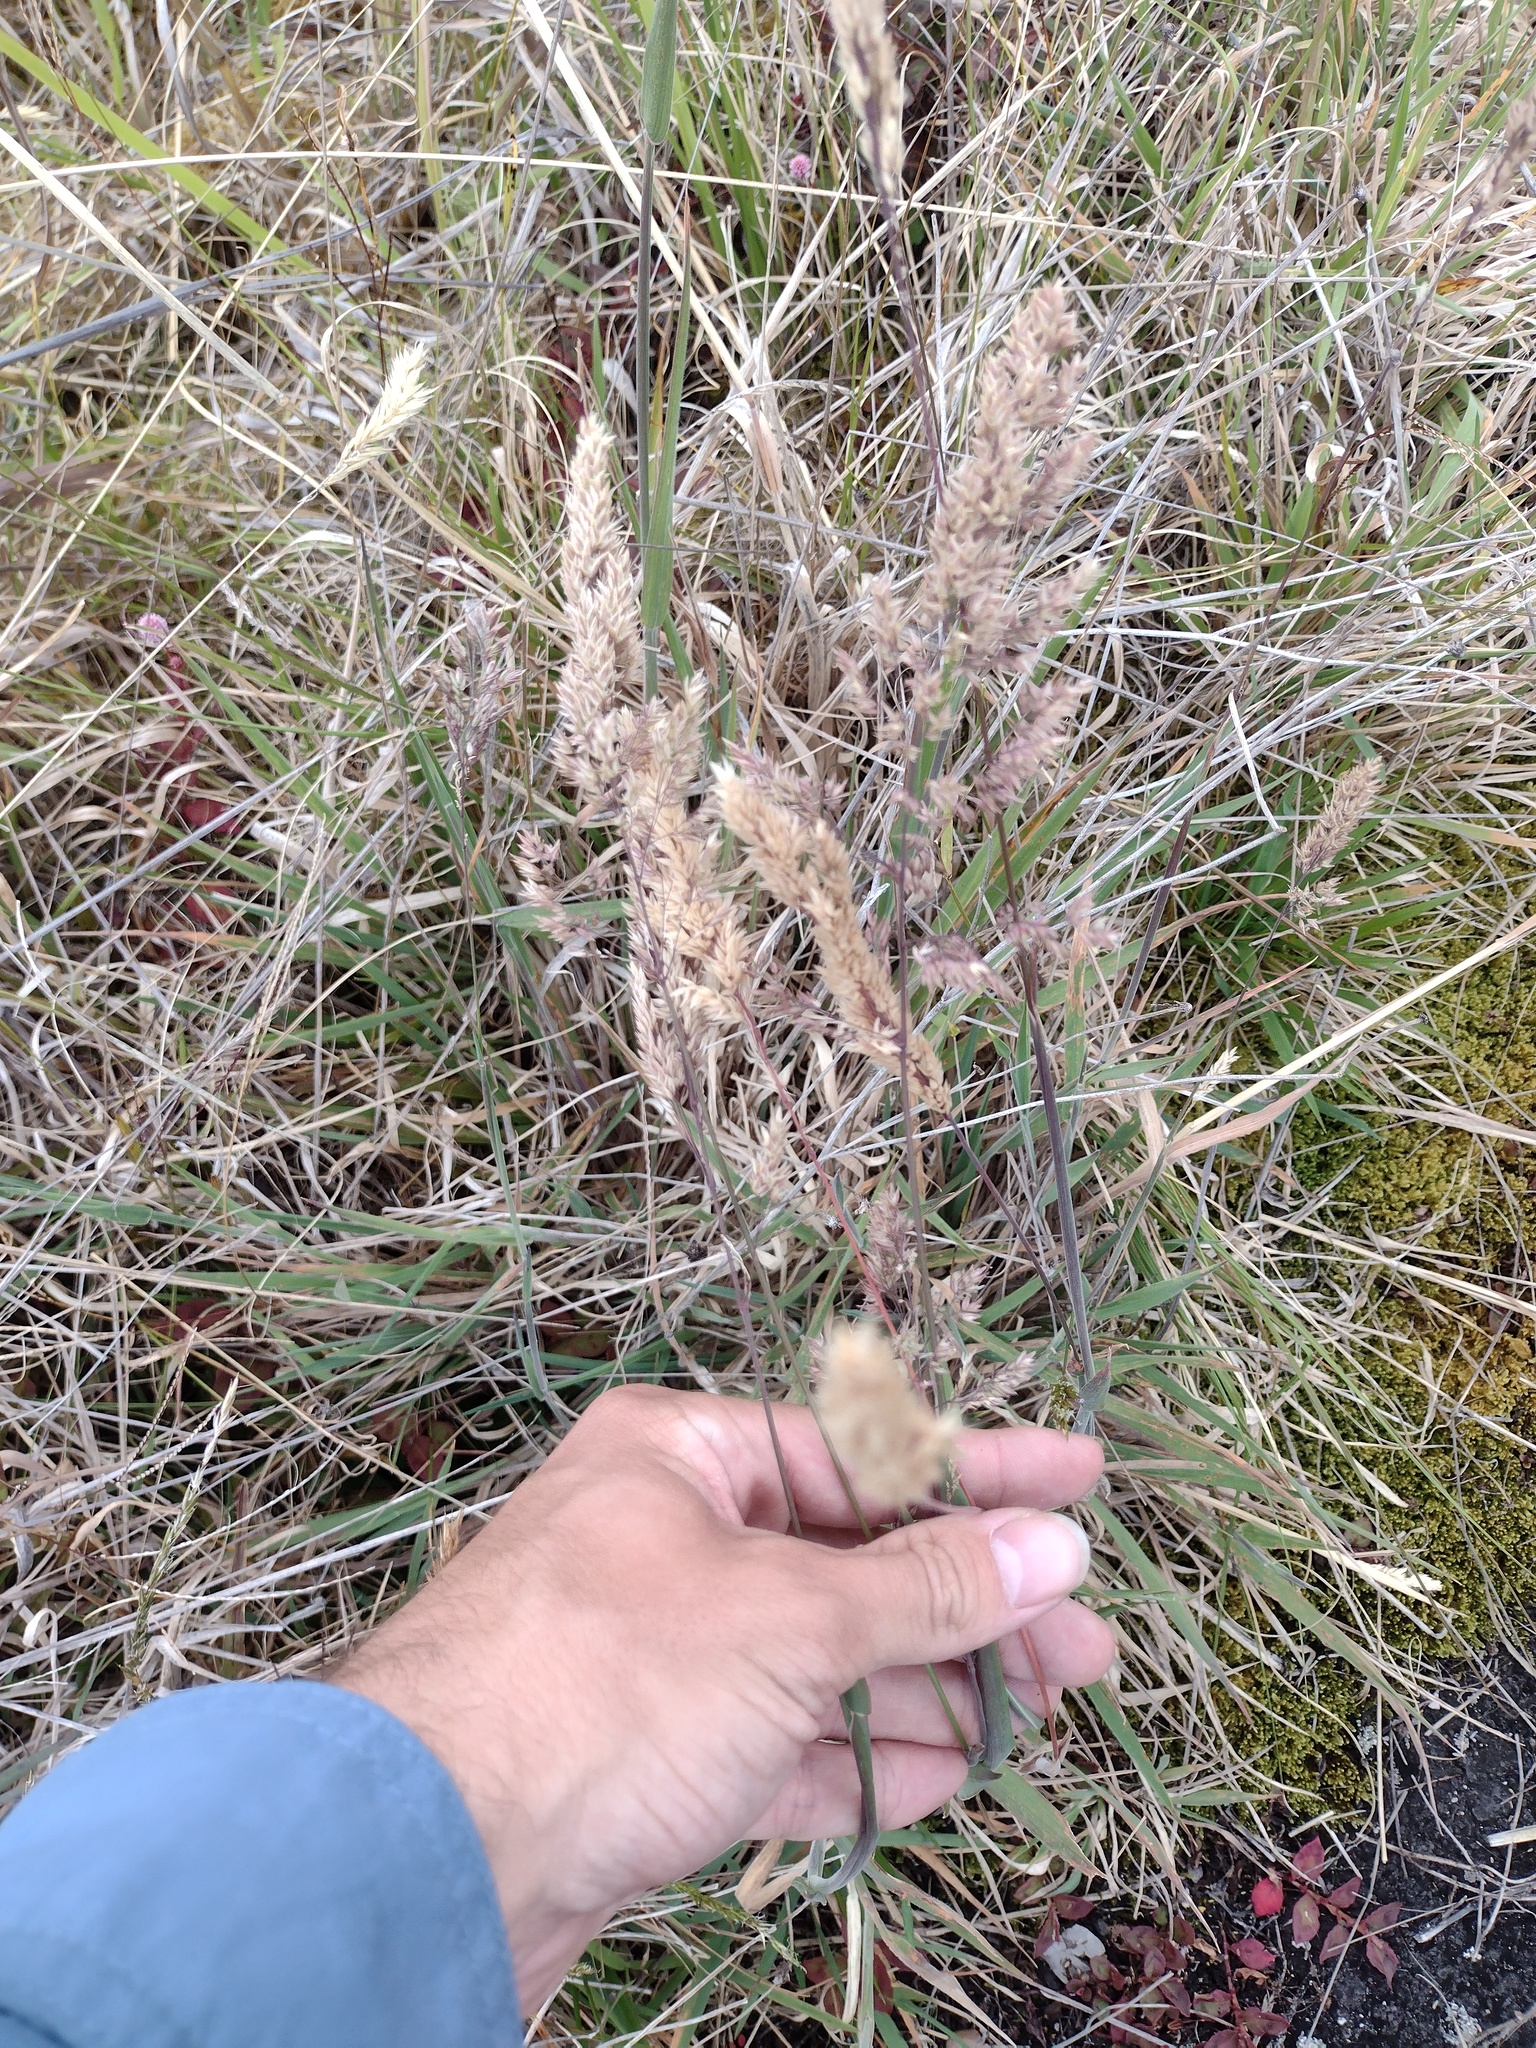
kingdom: Plantae
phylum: Tracheophyta
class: Liliopsida
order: Poales
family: Poaceae
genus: Holcus
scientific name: Holcus lanatus
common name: Yorkshire-fog
